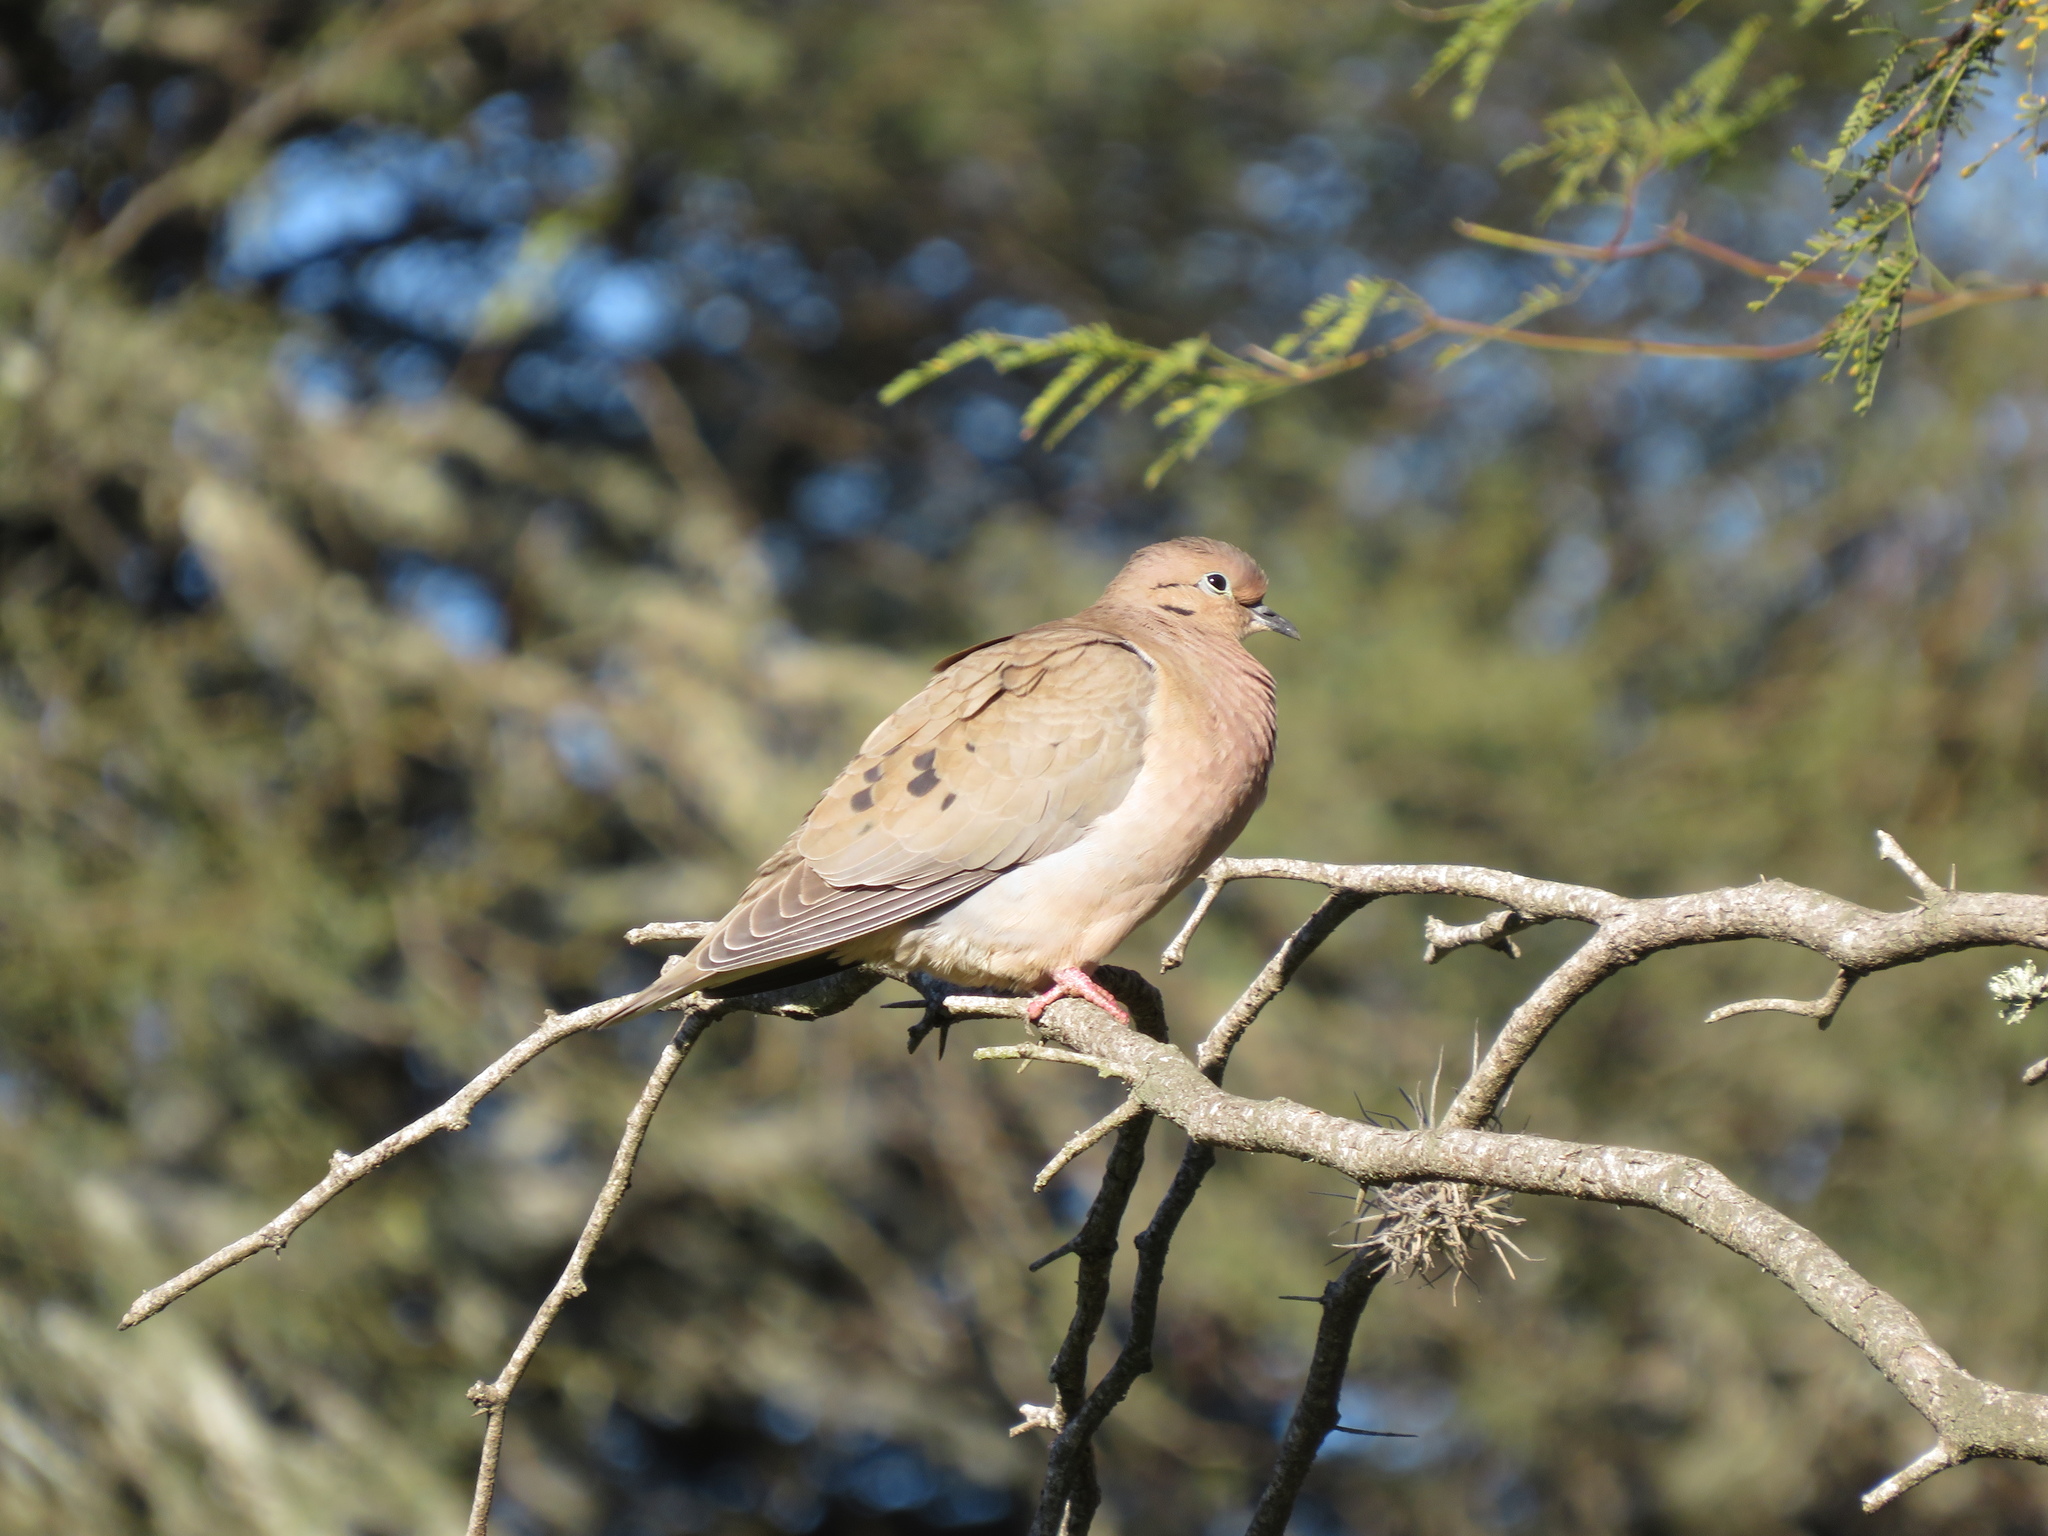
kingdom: Animalia
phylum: Chordata
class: Aves
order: Columbiformes
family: Columbidae
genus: Zenaida
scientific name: Zenaida auriculata
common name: Eared dove
